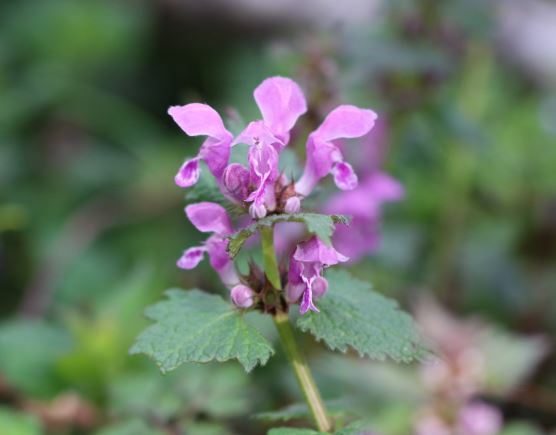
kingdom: Plantae
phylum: Tracheophyta
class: Magnoliopsida
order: Lamiales
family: Lamiaceae
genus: Lamium
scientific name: Lamium maculatum
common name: Spotted dead-nettle
